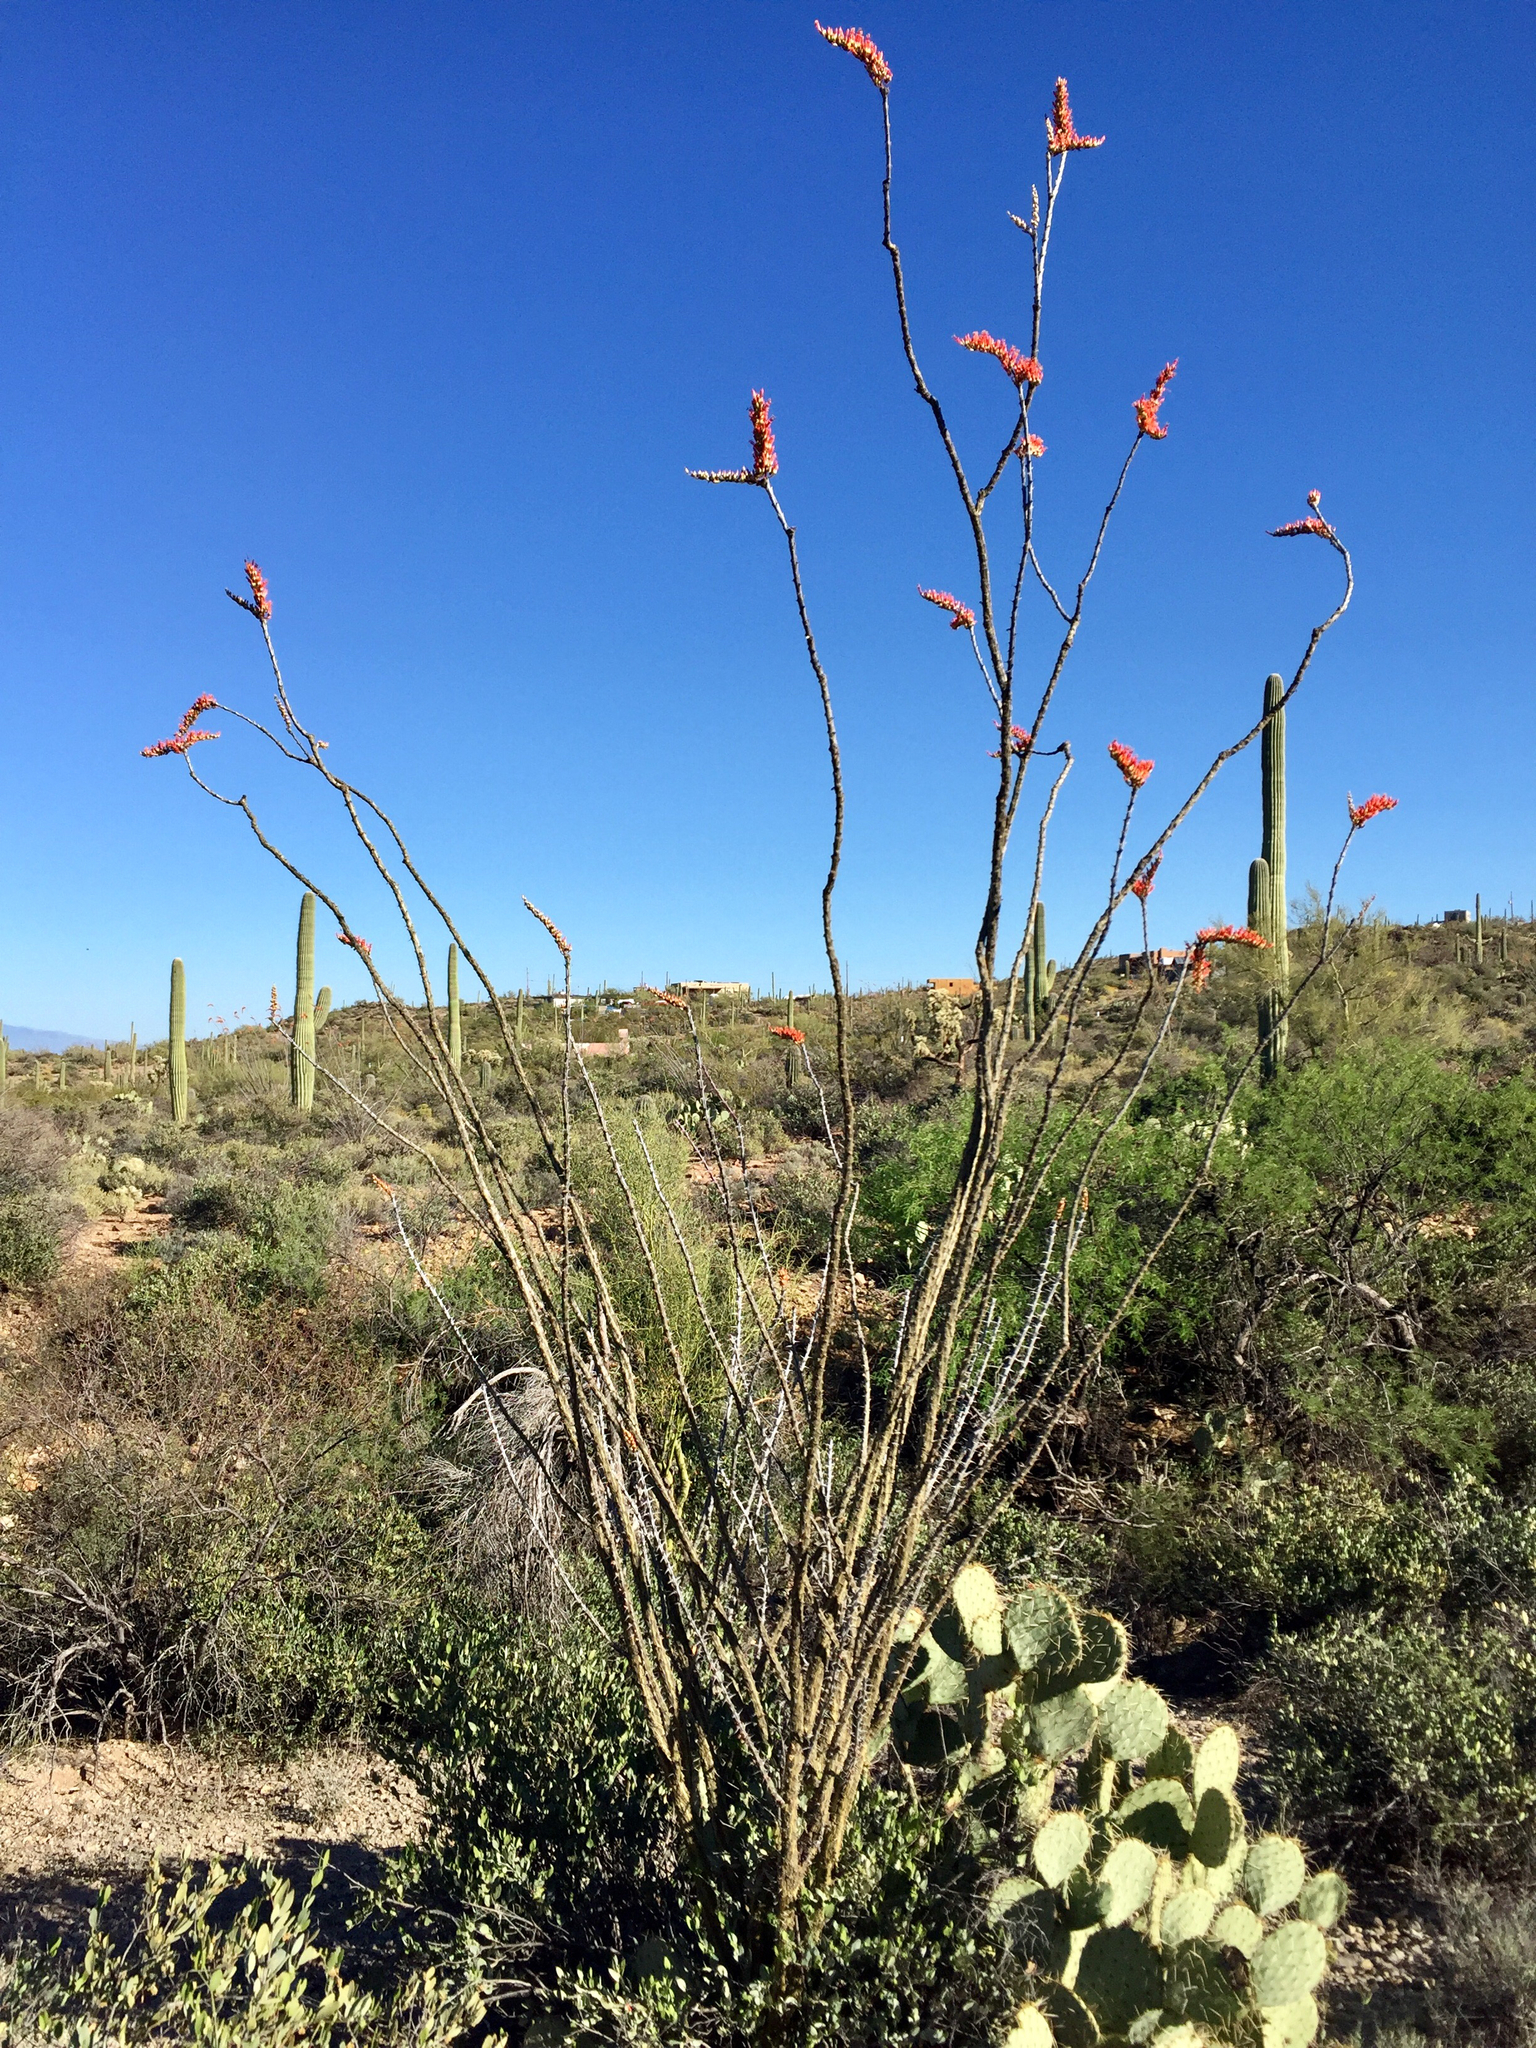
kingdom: Plantae
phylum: Tracheophyta
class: Magnoliopsida
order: Ericales
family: Fouquieriaceae
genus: Fouquieria
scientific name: Fouquieria splendens
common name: Vine-cactus
